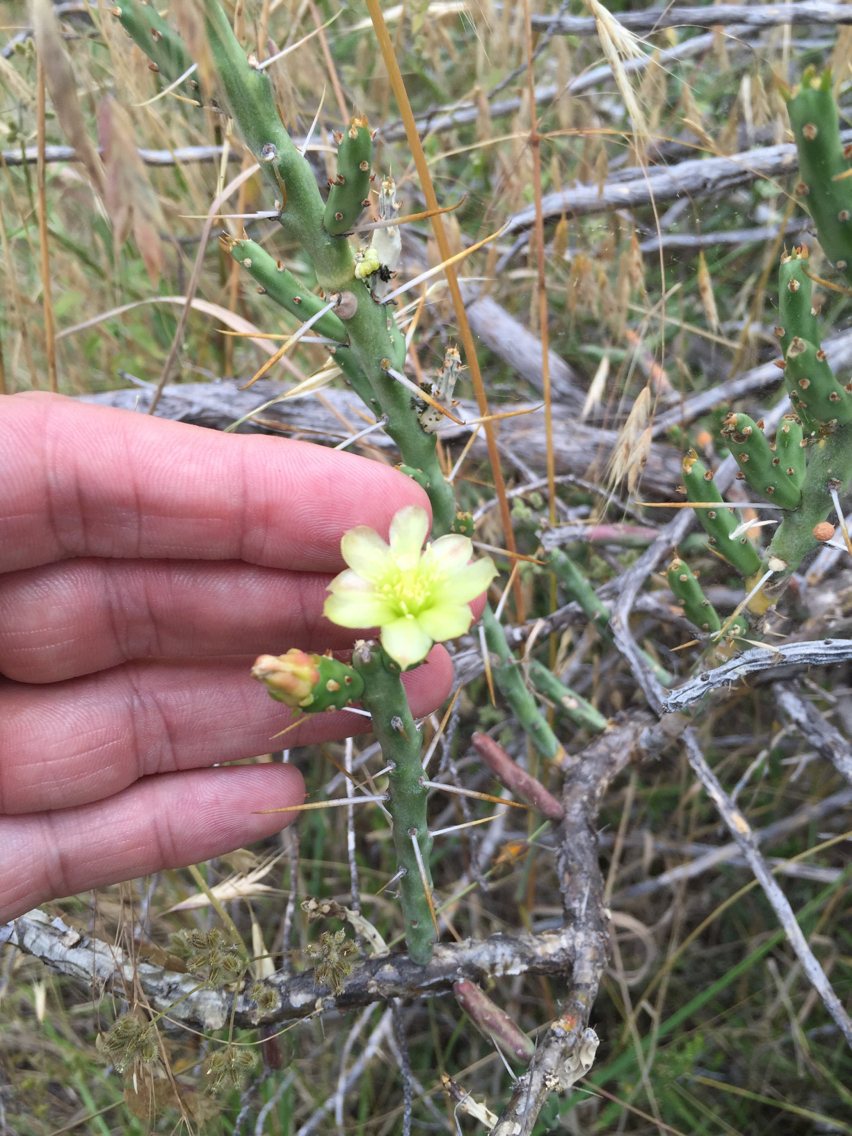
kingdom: Plantae
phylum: Tracheophyta
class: Magnoliopsida
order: Caryophyllales
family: Cactaceae
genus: Cylindropuntia
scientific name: Cylindropuntia leptocaulis
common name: Christmas cactus
